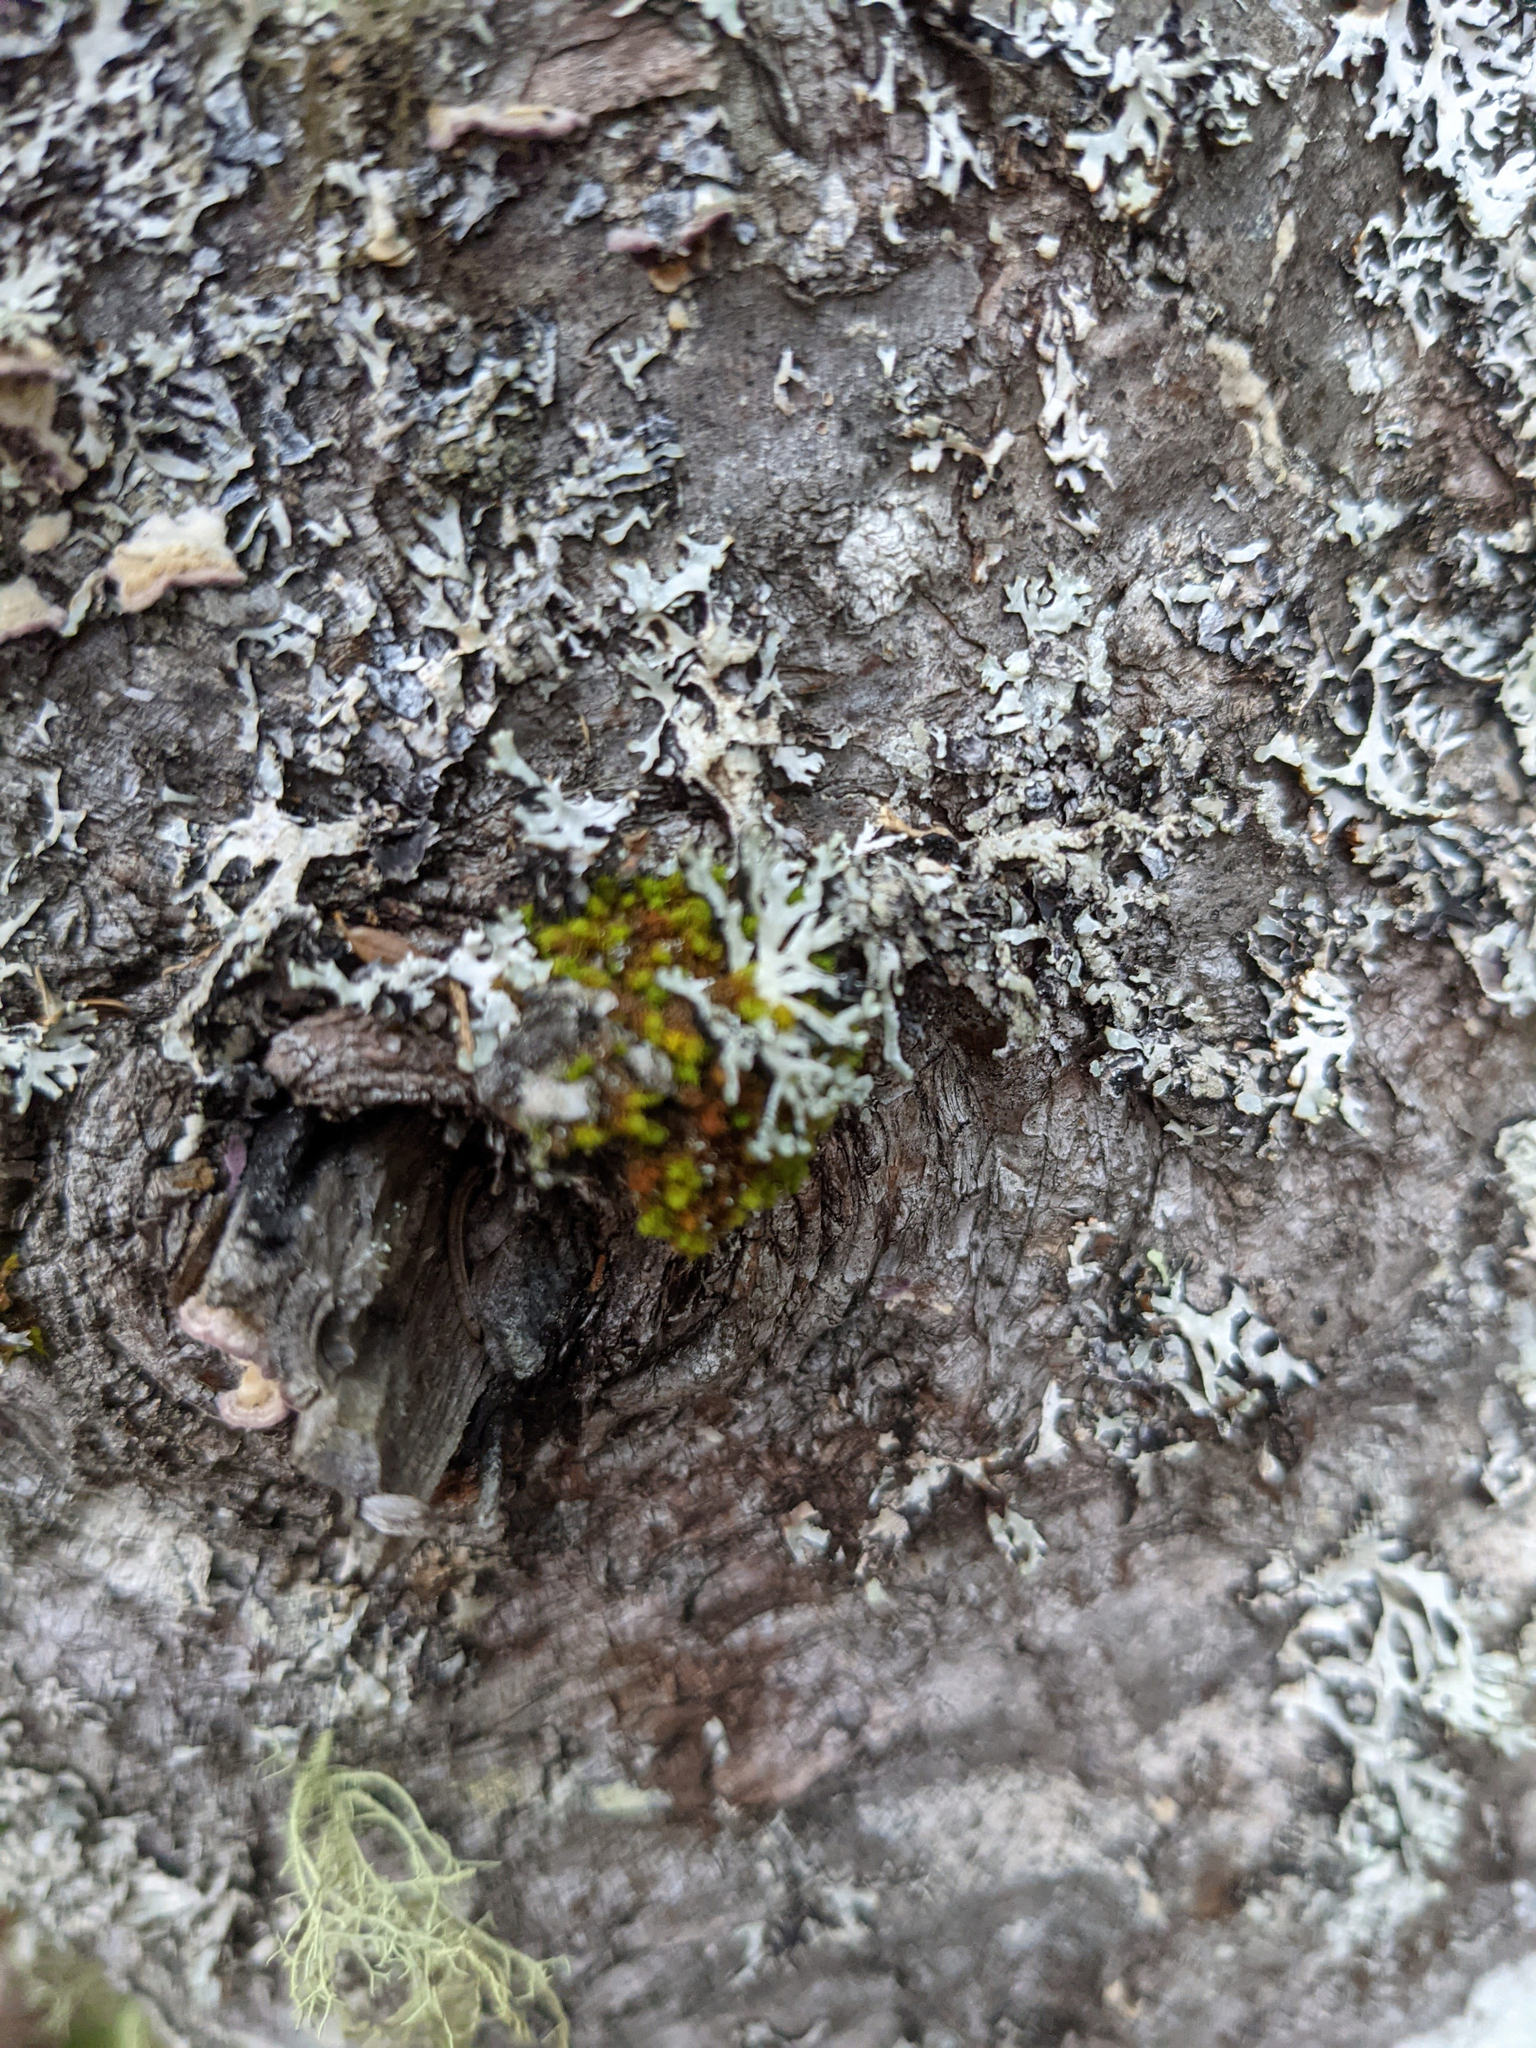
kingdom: Plantae
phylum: Bryophyta
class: Bryopsida
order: Orthotrichales
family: Orthotrichaceae
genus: Ulota
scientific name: Ulota crispa
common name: Crisped pincushion moss
